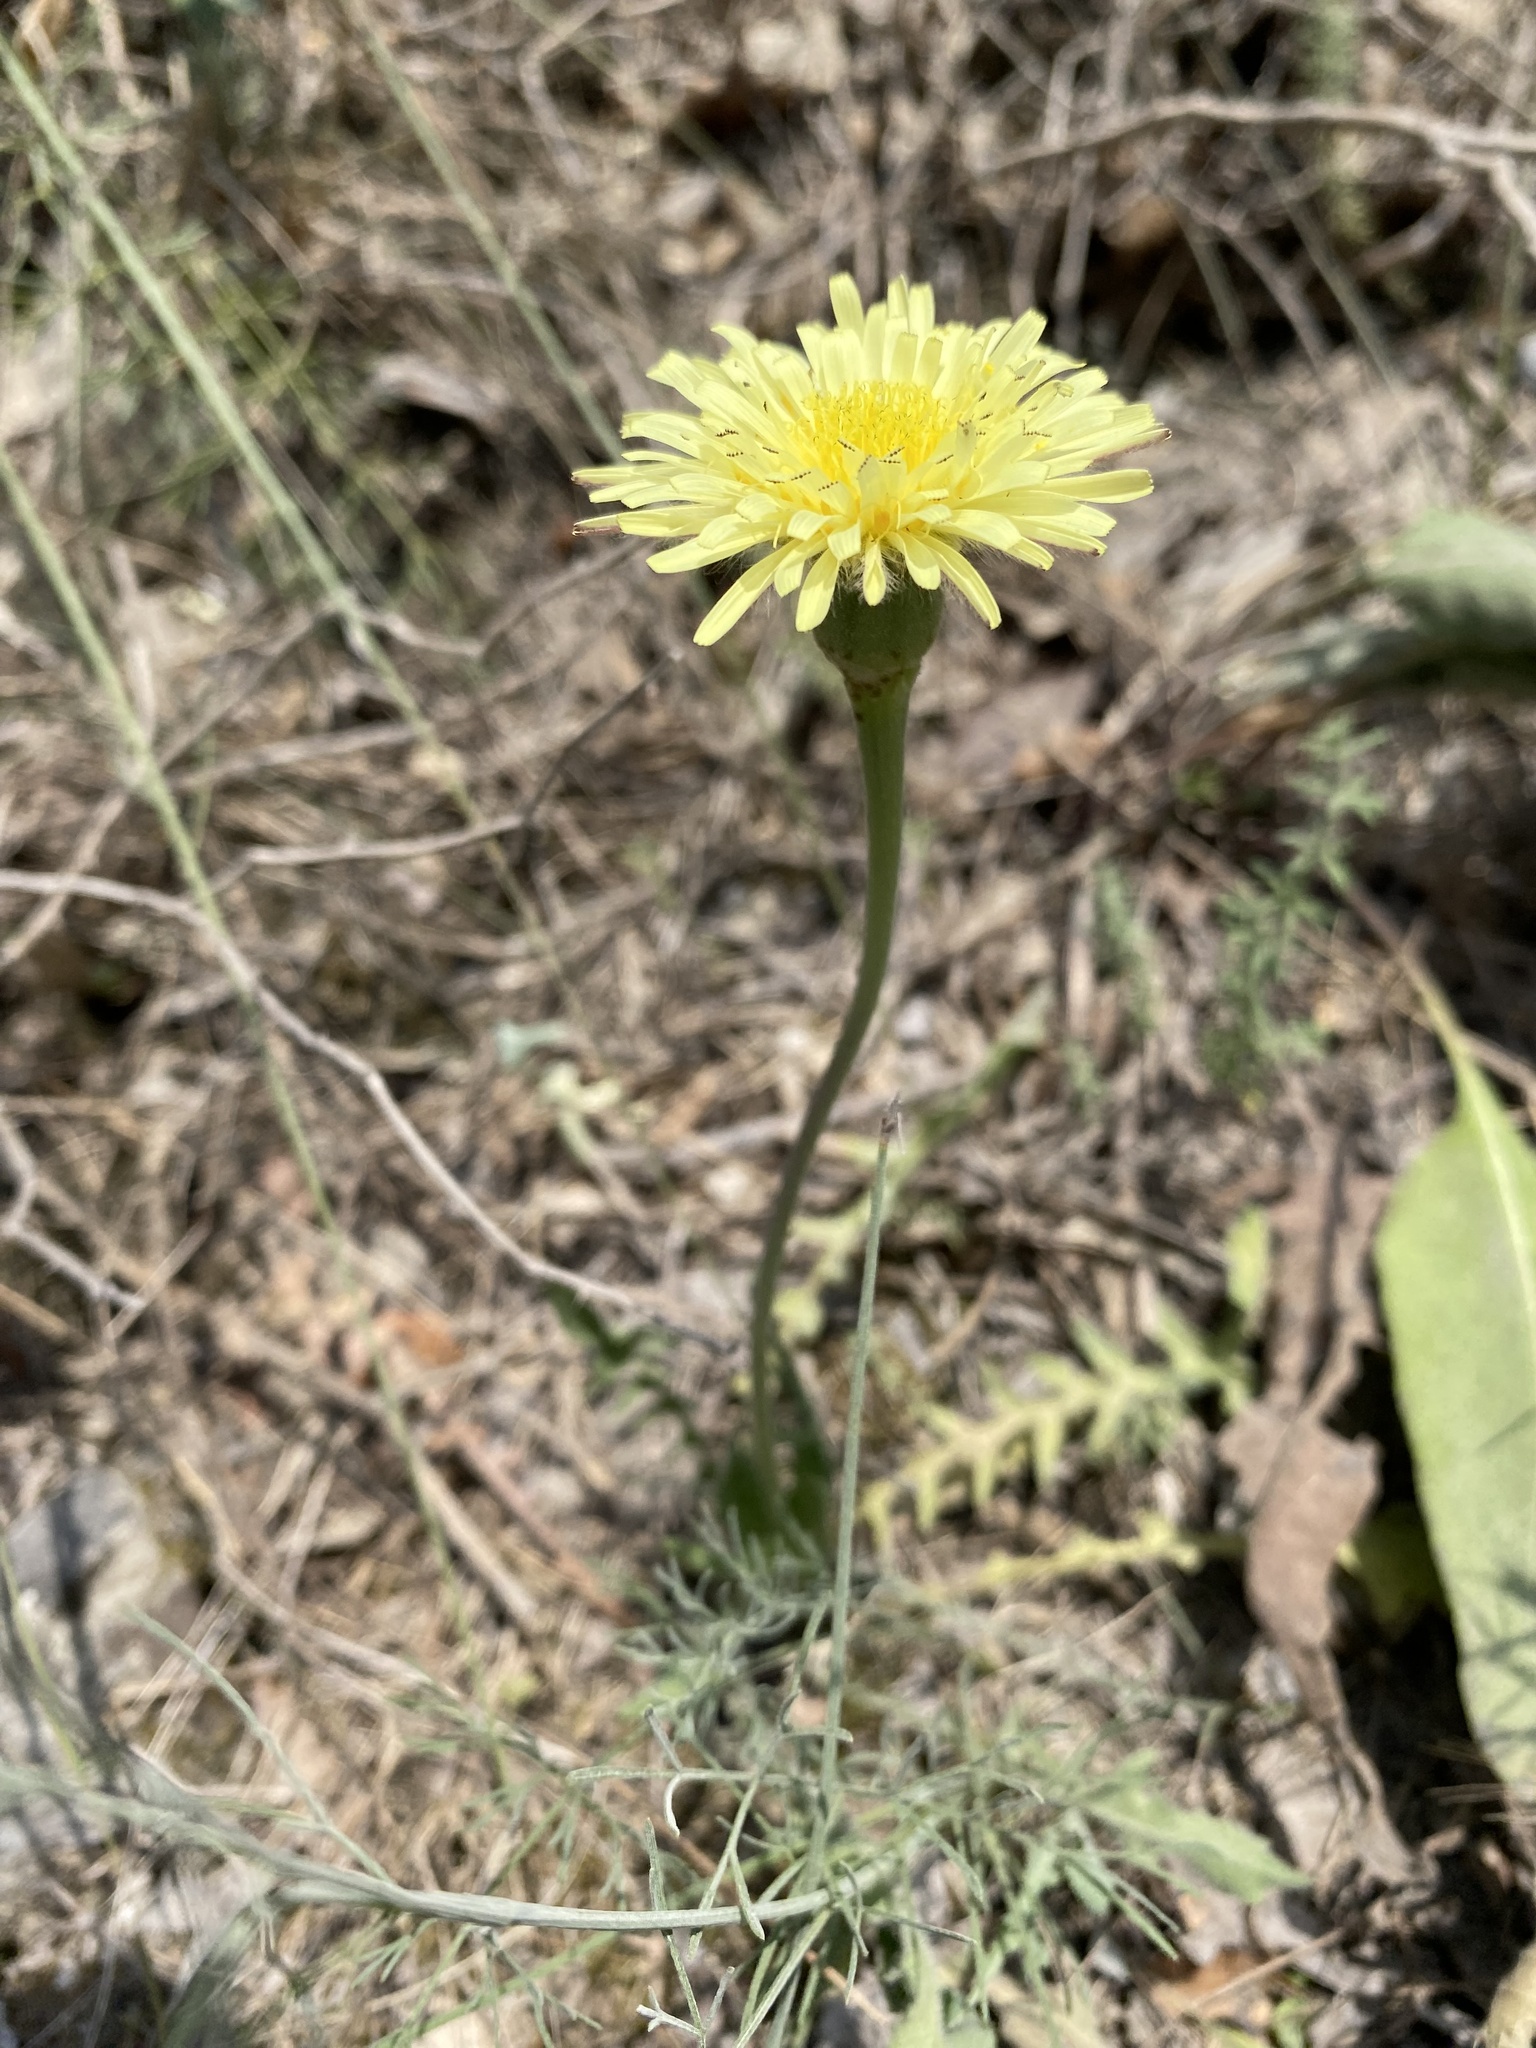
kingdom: Plantae
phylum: Tracheophyta
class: Magnoliopsida
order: Asterales
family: Asteraceae
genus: Urospermum
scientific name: Urospermum dalechampii
